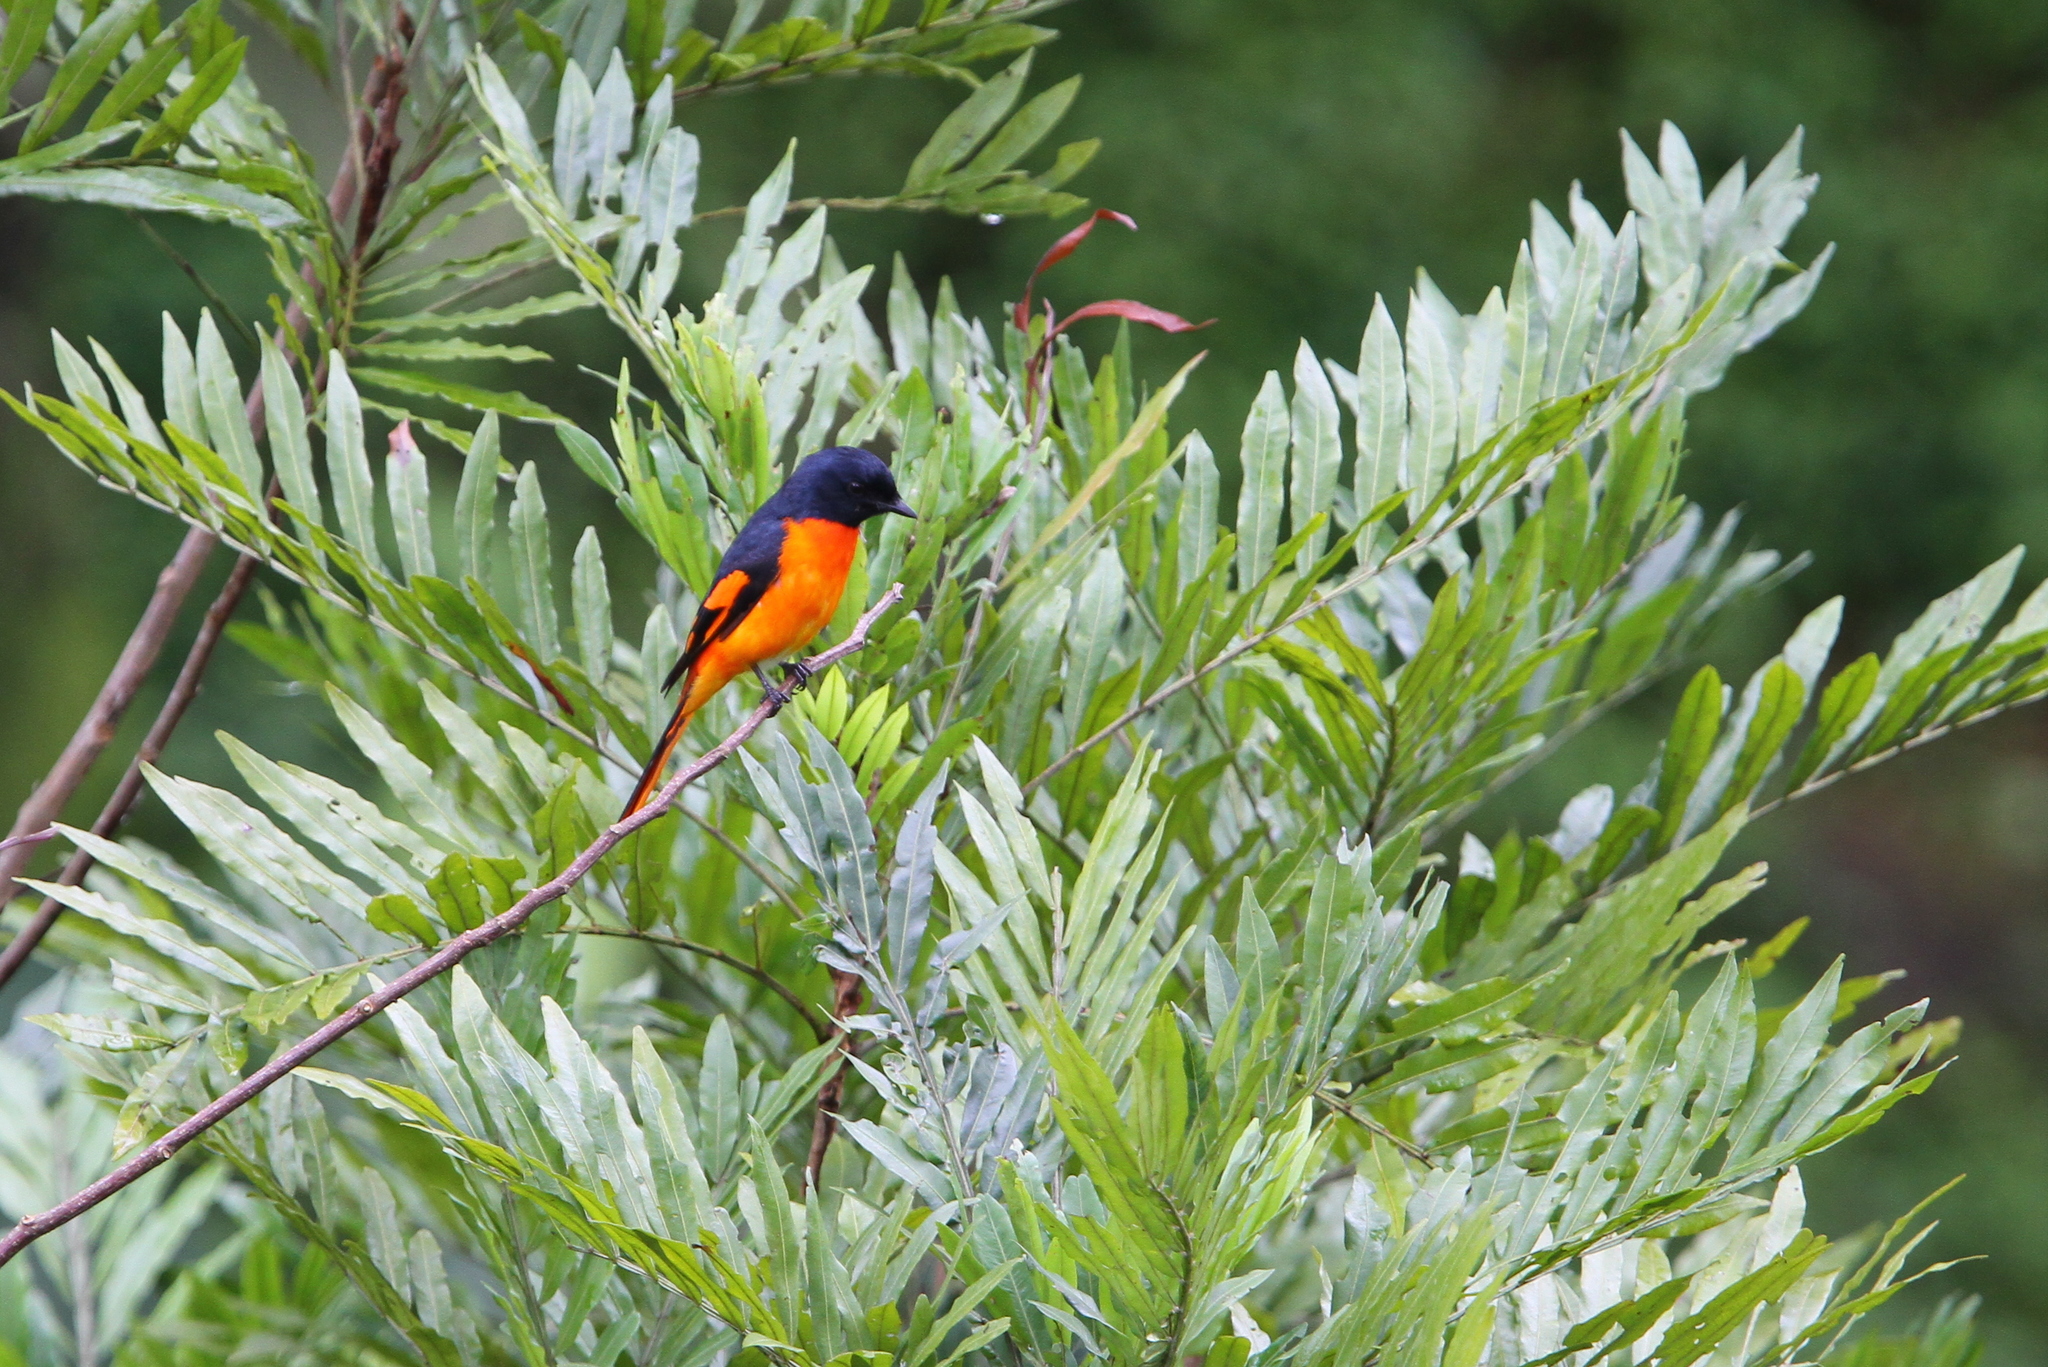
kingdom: Animalia
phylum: Chordata
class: Aves
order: Passeriformes
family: Campephagidae
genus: Pericrocotus
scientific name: Pericrocotus flammeus
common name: Orange minivet
